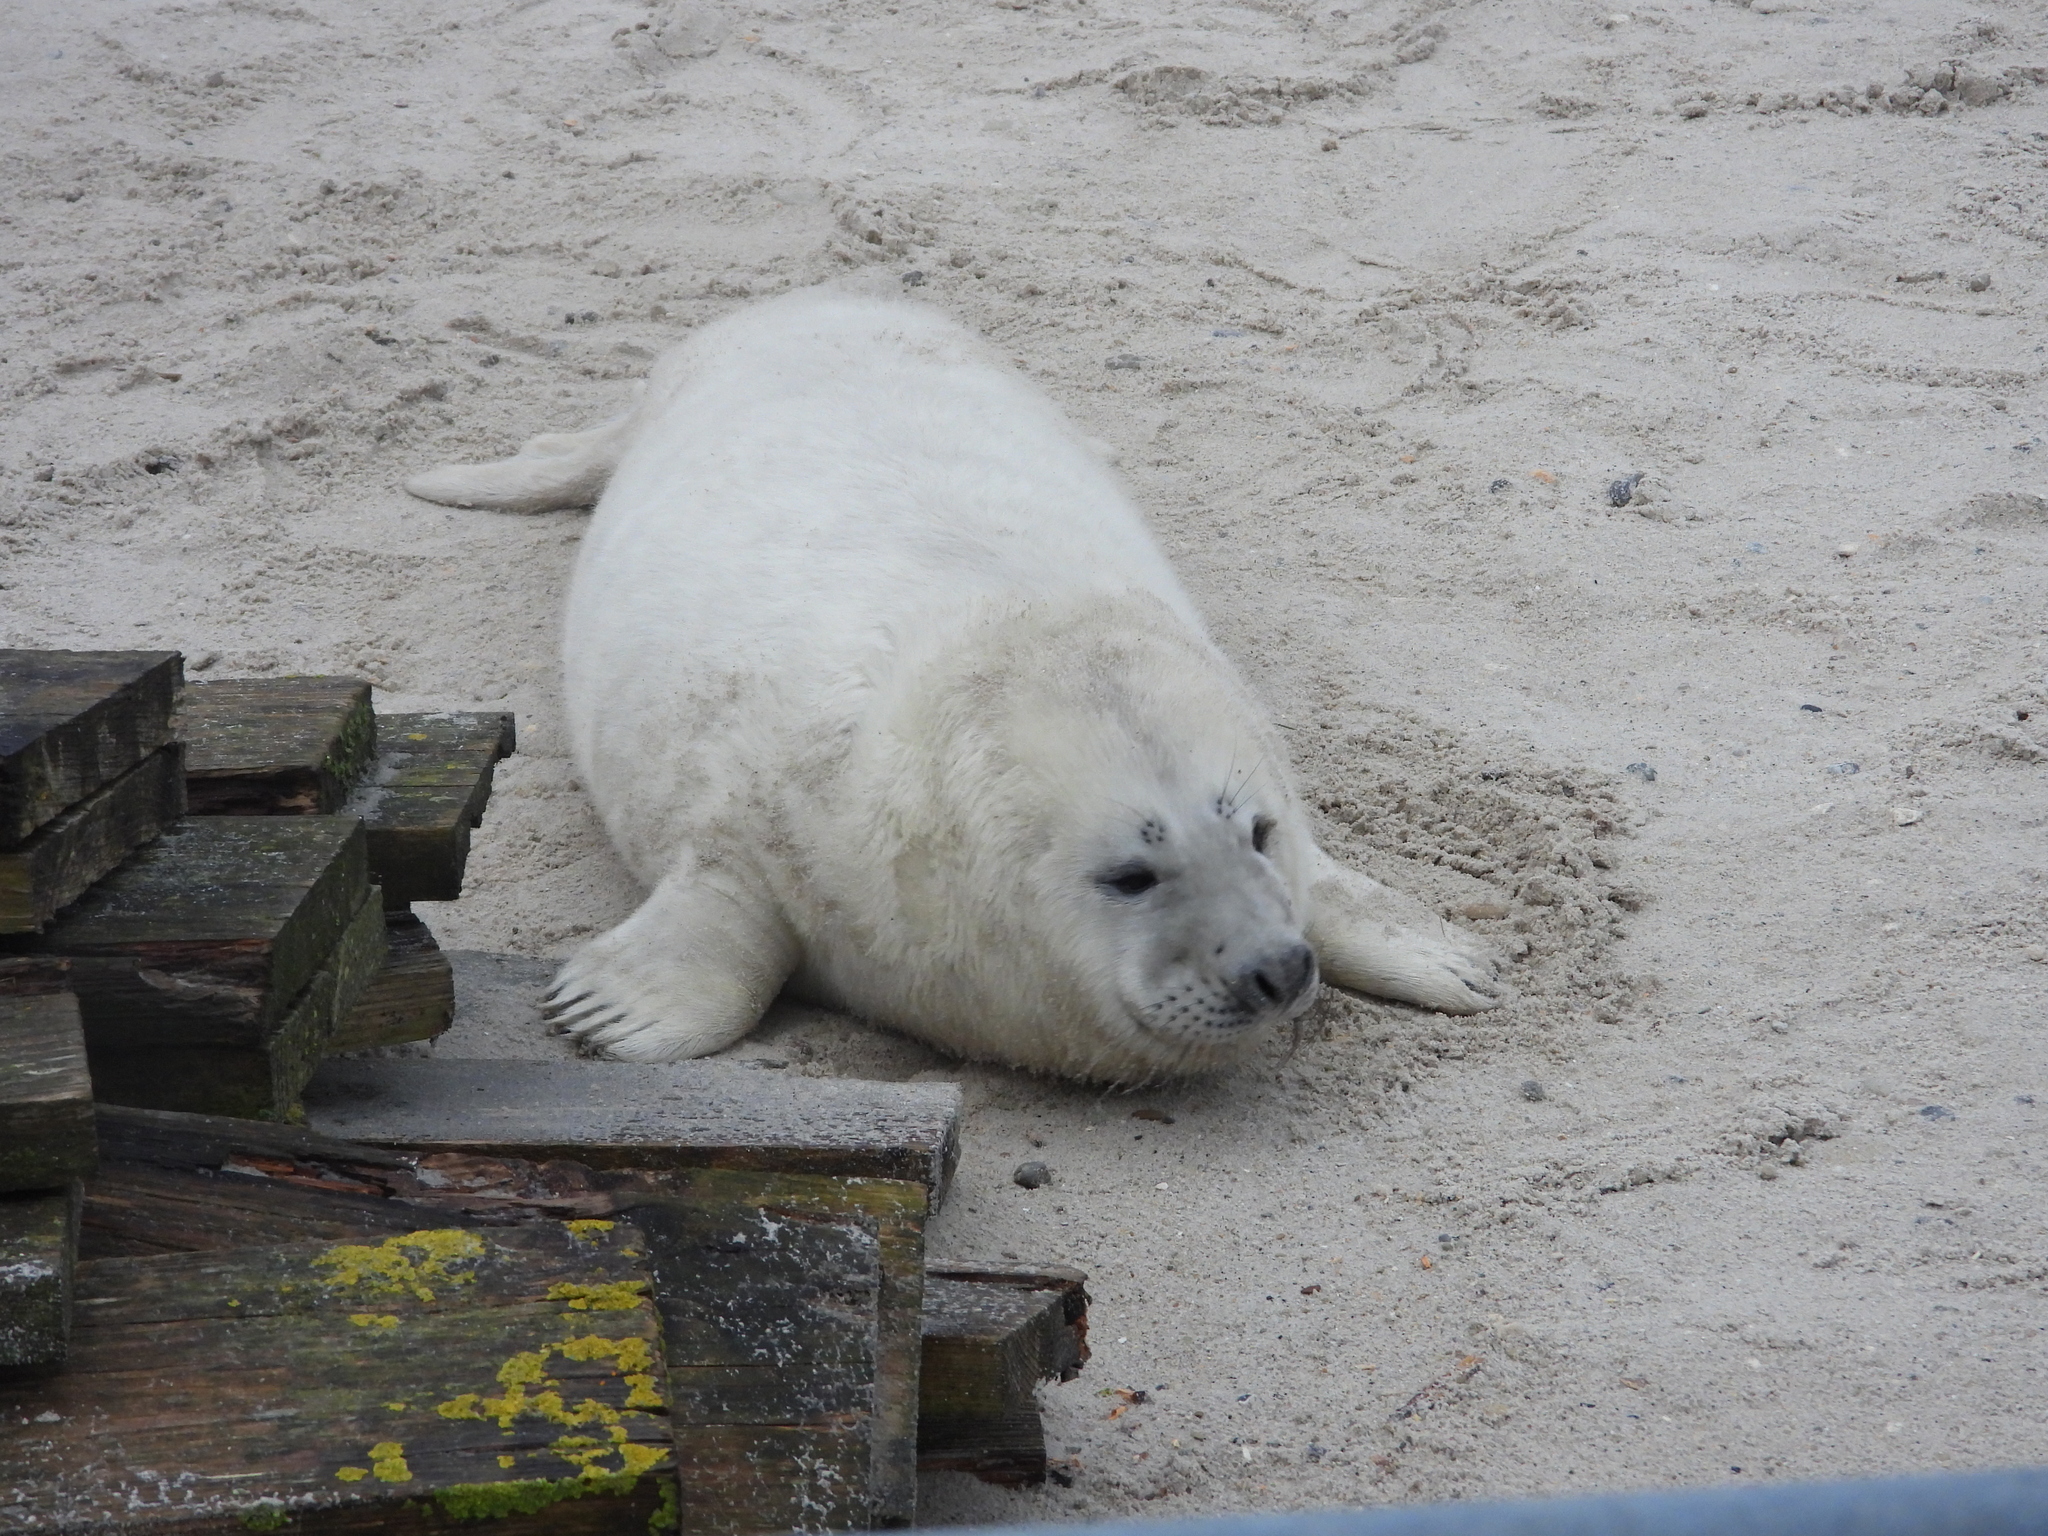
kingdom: Animalia
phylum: Chordata
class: Mammalia
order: Carnivora
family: Phocidae
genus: Halichoerus
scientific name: Halichoerus grypus
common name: Grey seal
